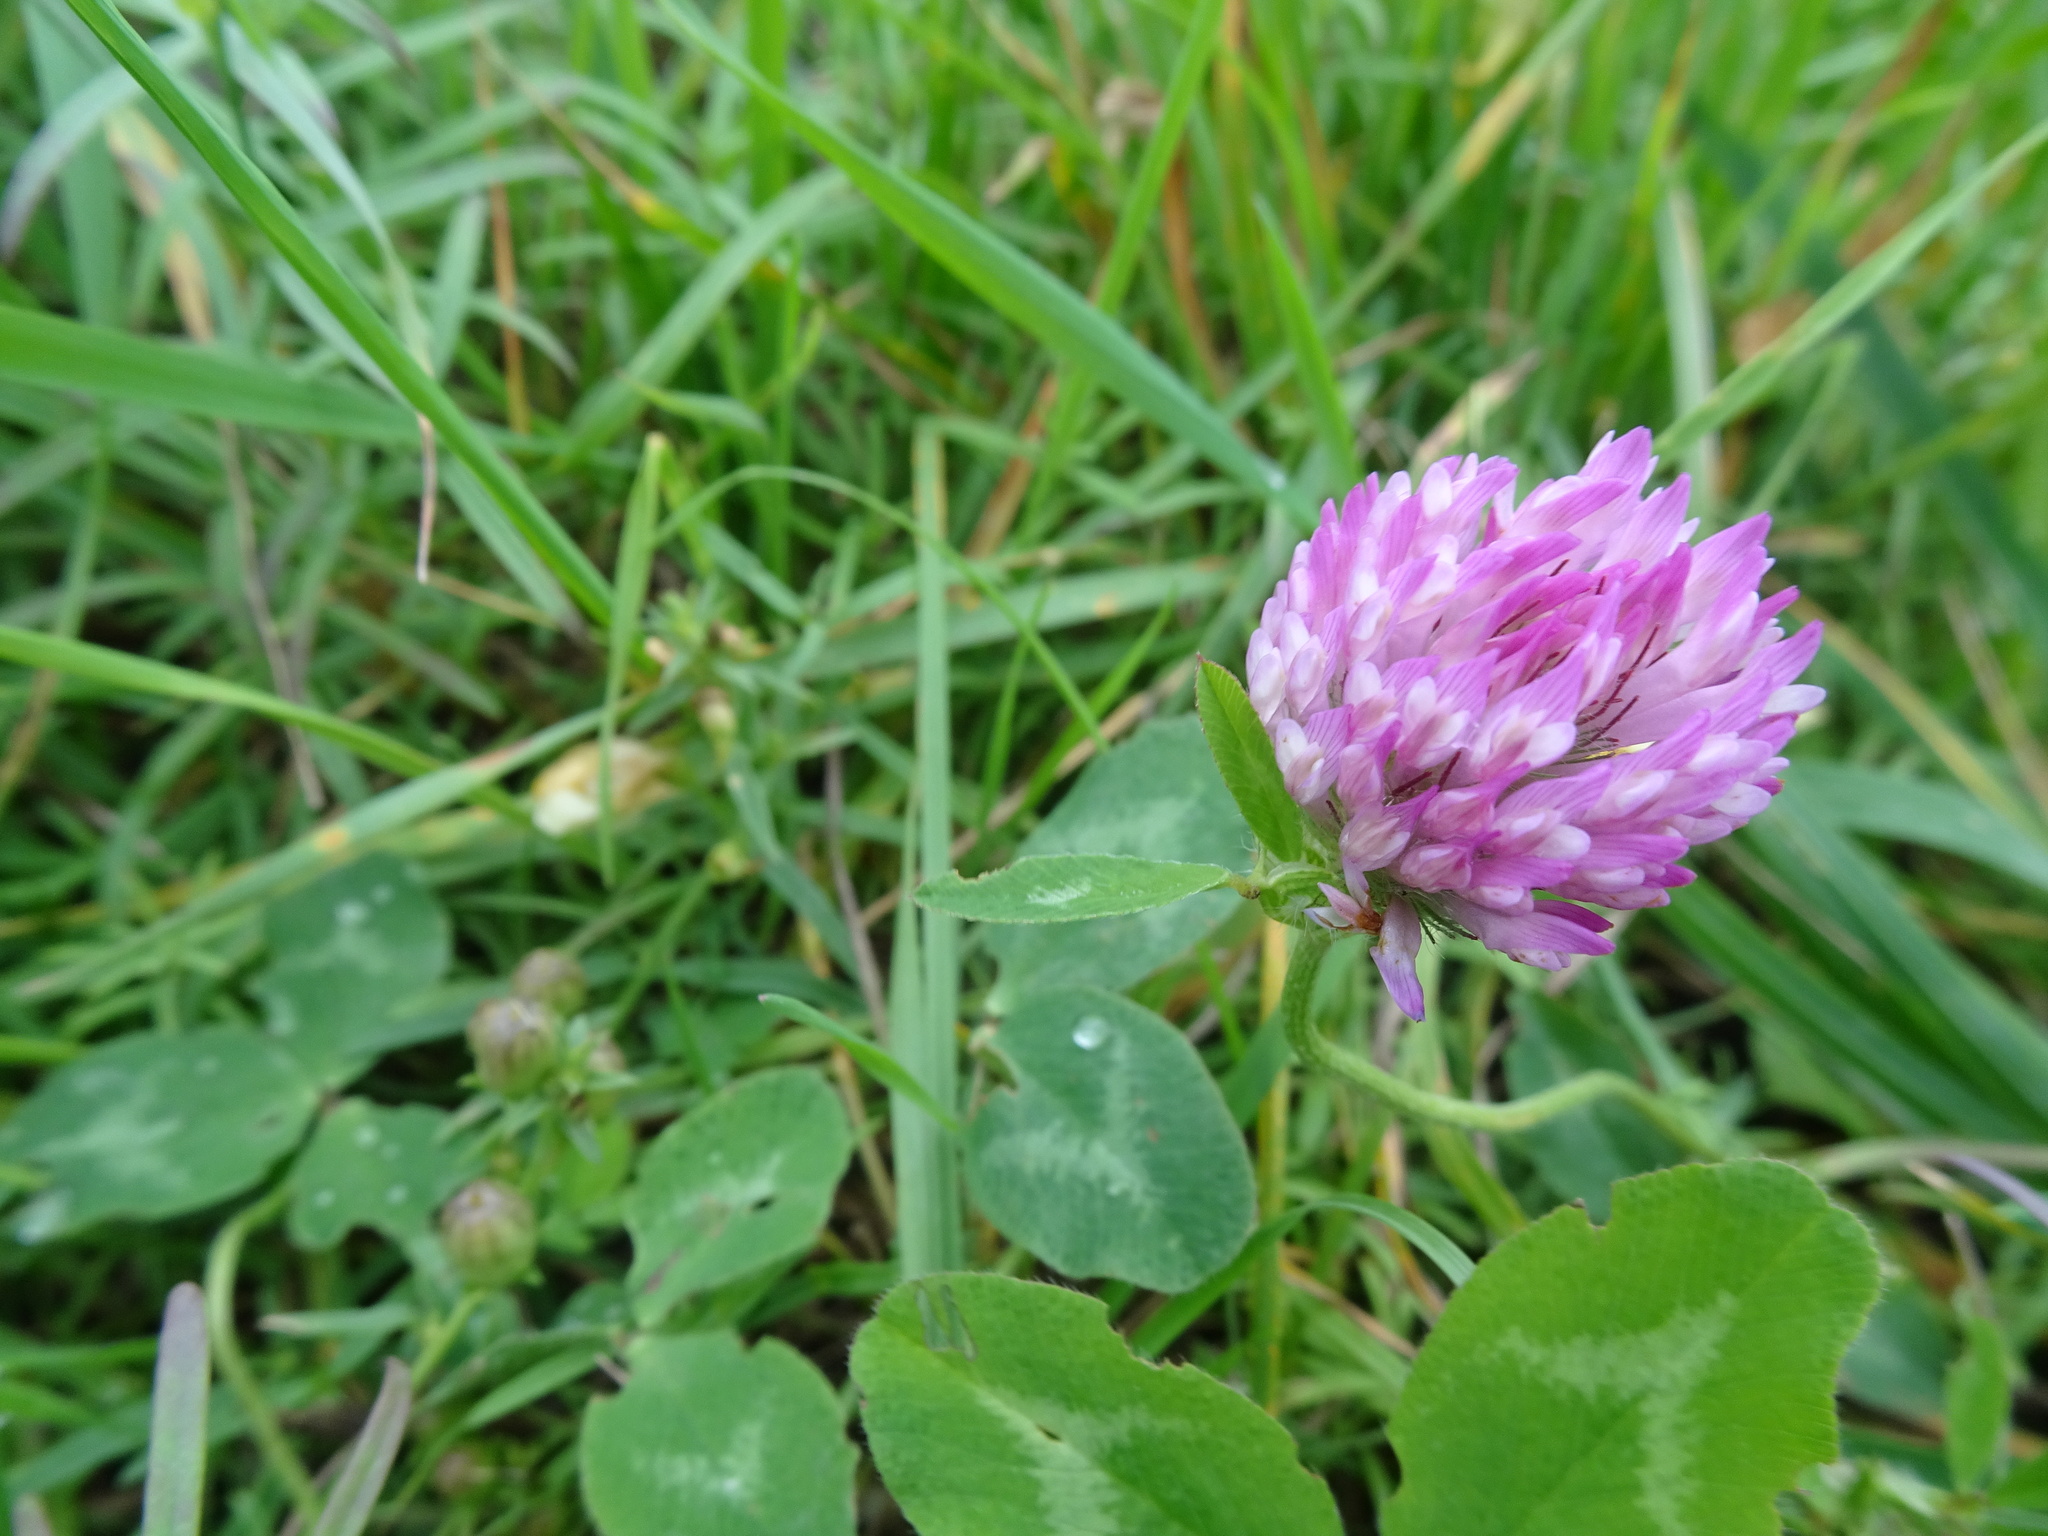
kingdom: Plantae
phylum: Tracheophyta
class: Magnoliopsida
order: Fabales
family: Fabaceae
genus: Trifolium
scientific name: Trifolium pratense
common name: Red clover
